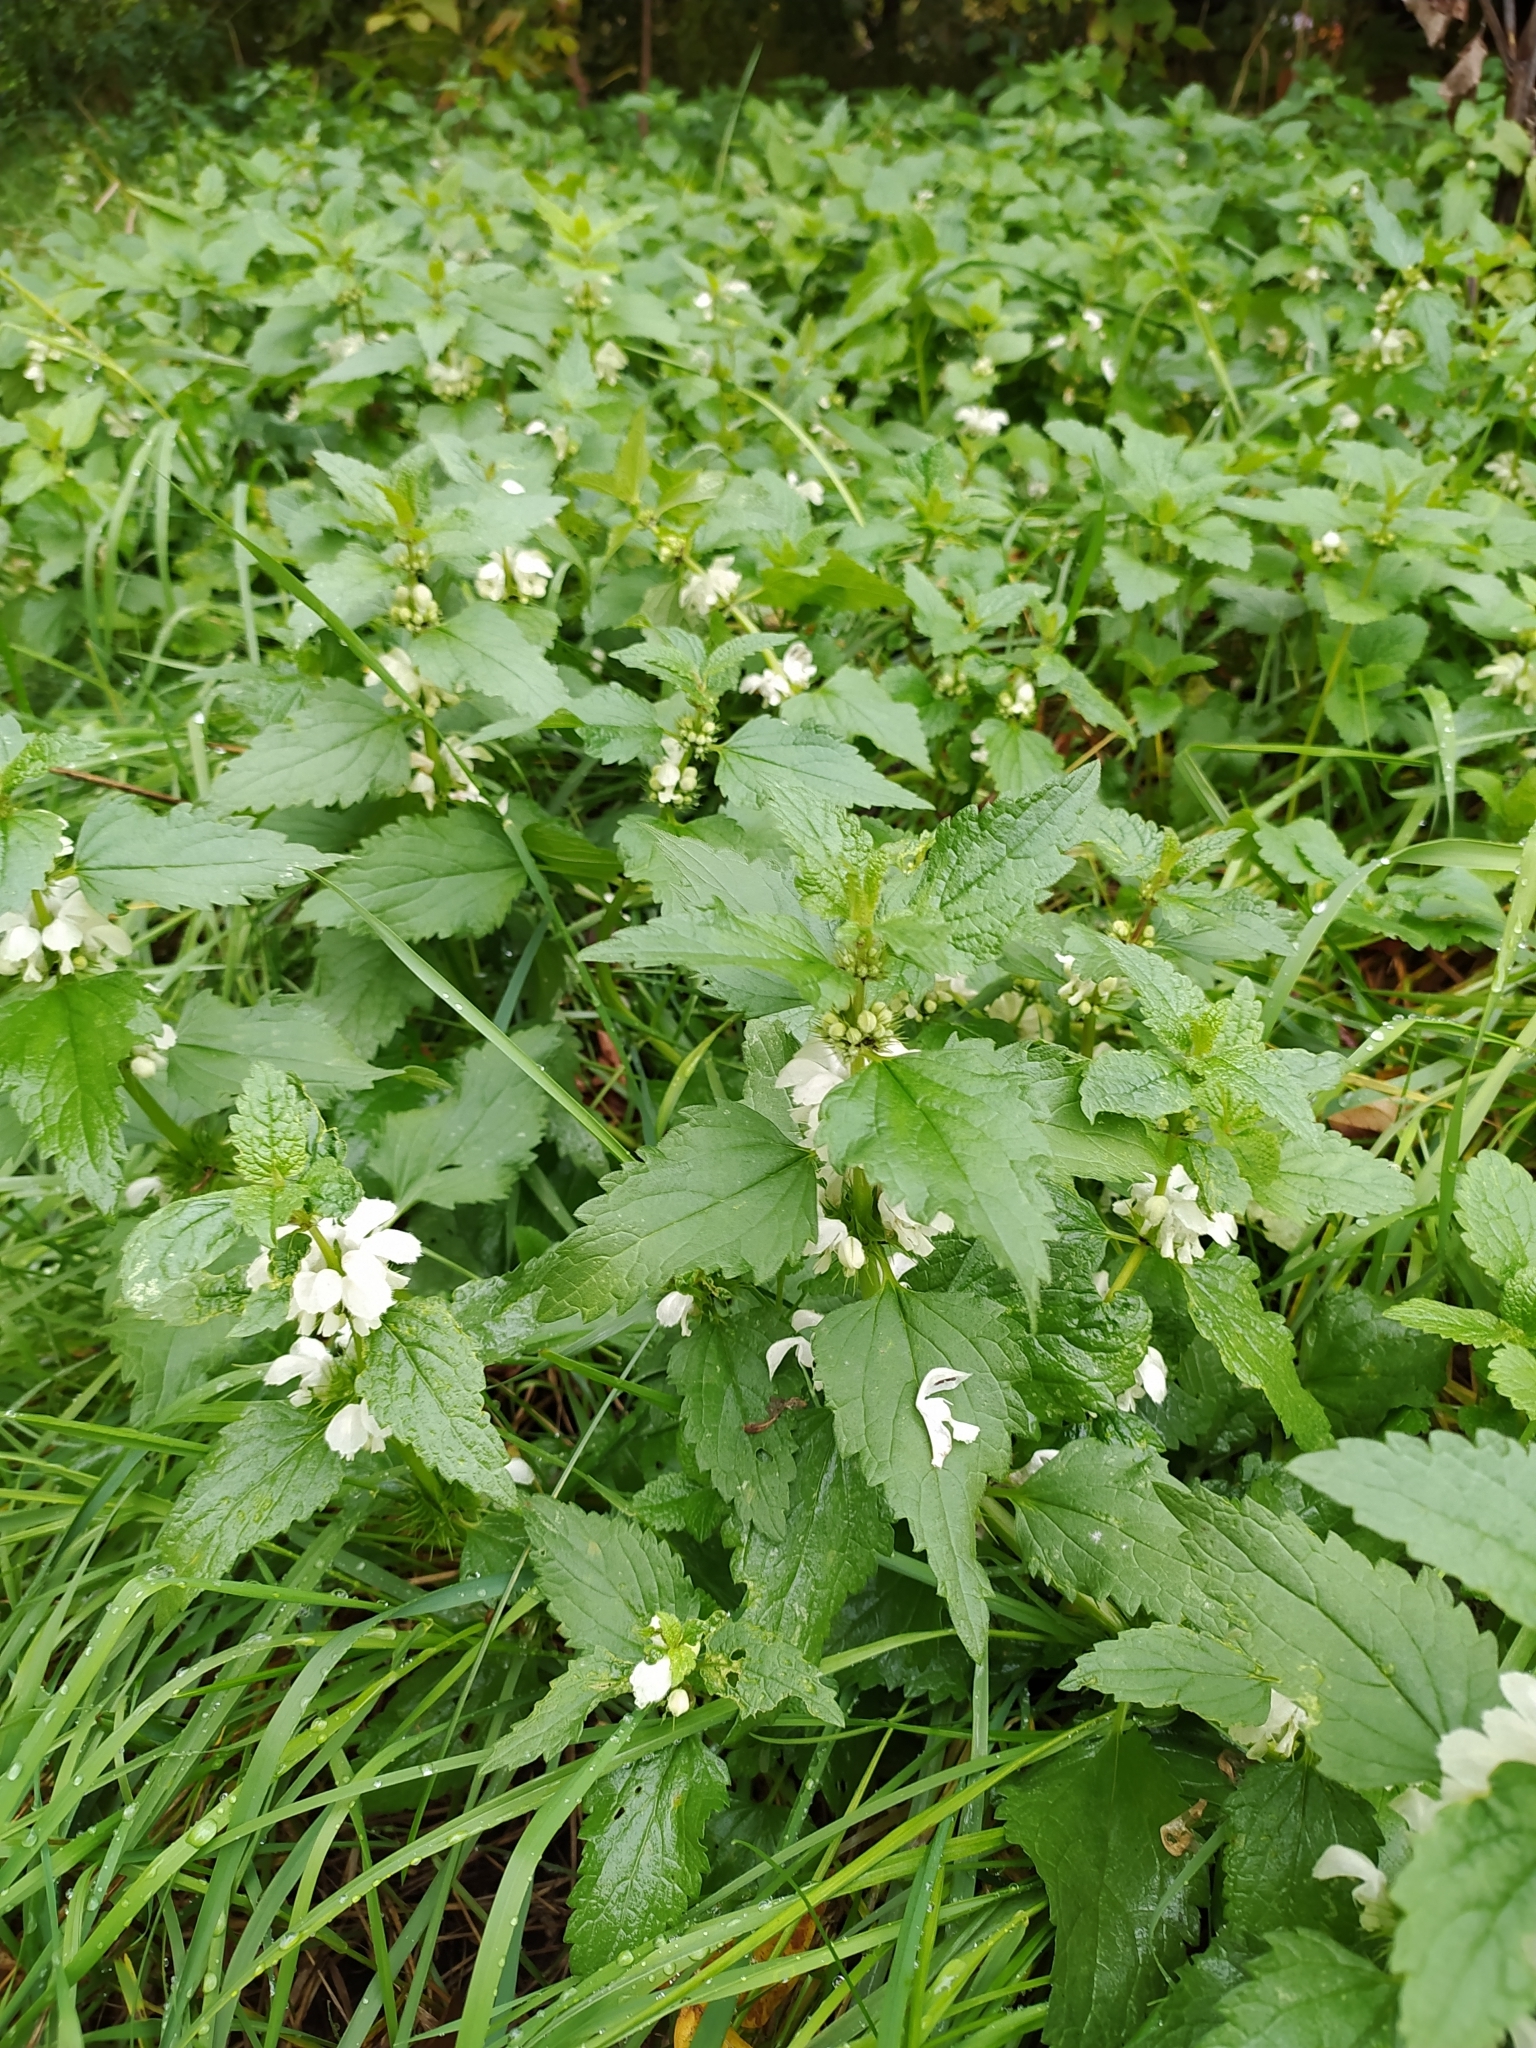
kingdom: Plantae
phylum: Tracheophyta
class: Magnoliopsida
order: Lamiales
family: Lamiaceae
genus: Lamium
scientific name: Lamium album
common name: White dead-nettle
